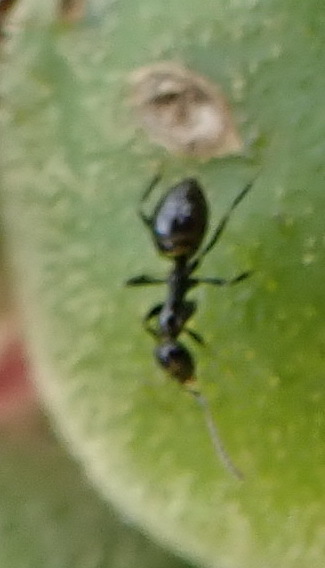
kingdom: Animalia
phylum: Arthropoda
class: Insecta
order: Hymenoptera
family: Formicidae
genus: Plagiolepis
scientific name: Plagiolepis deweti
